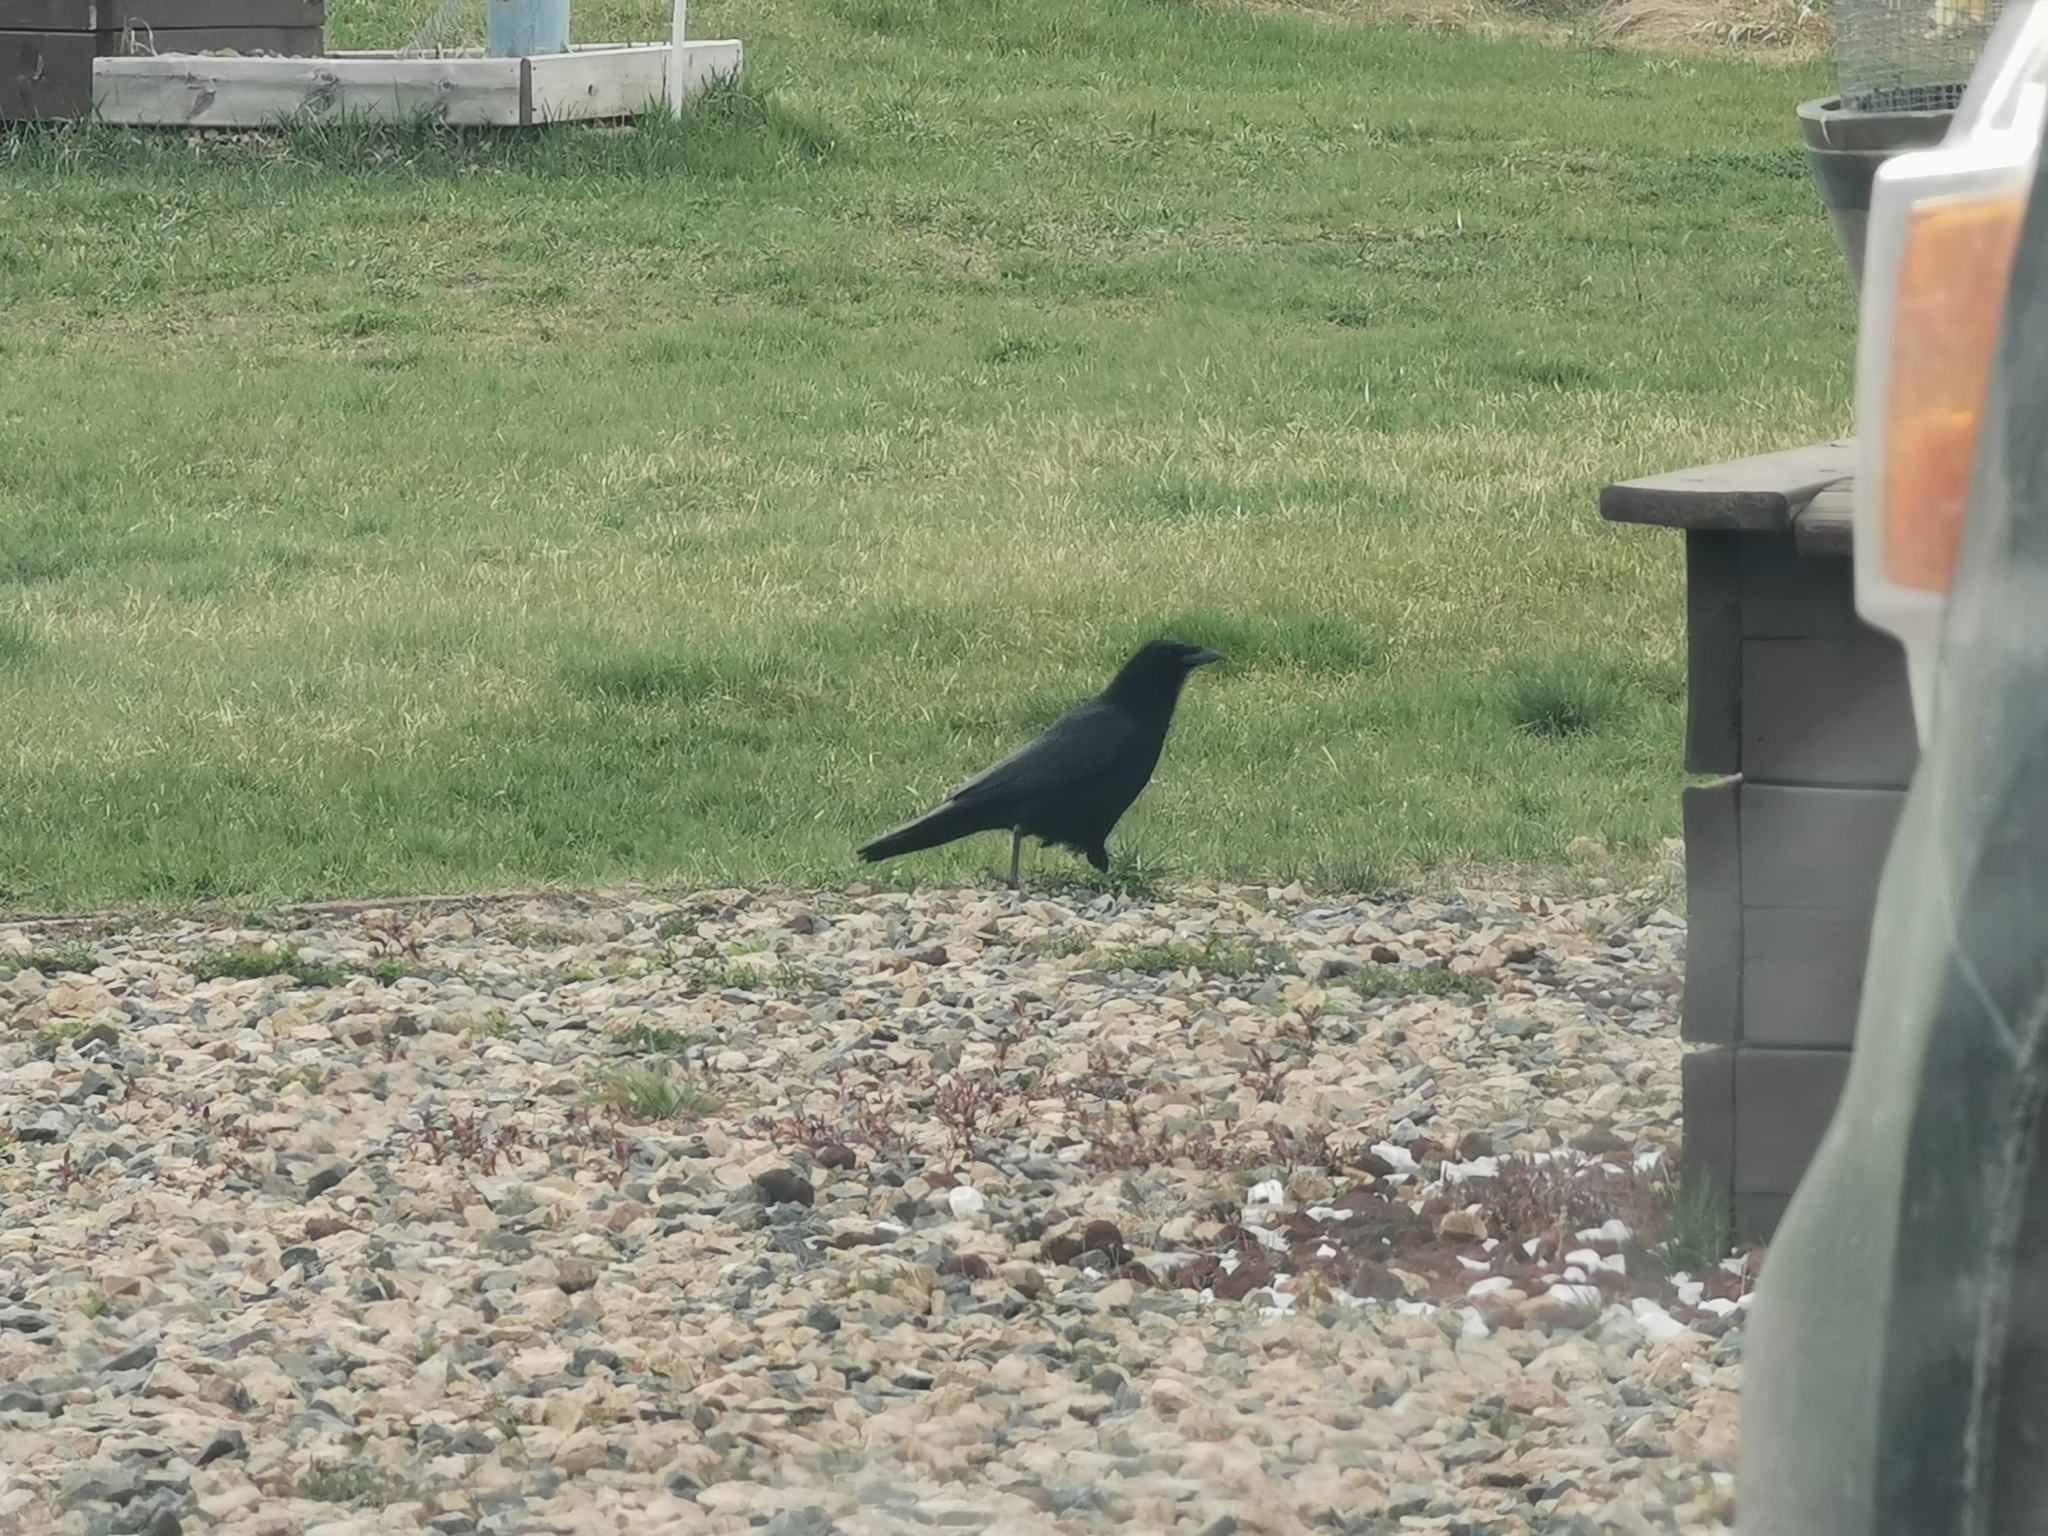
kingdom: Animalia
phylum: Chordata
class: Aves
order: Passeriformes
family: Corvidae
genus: Corvus
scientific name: Corvus brachyrhynchos
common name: American crow
